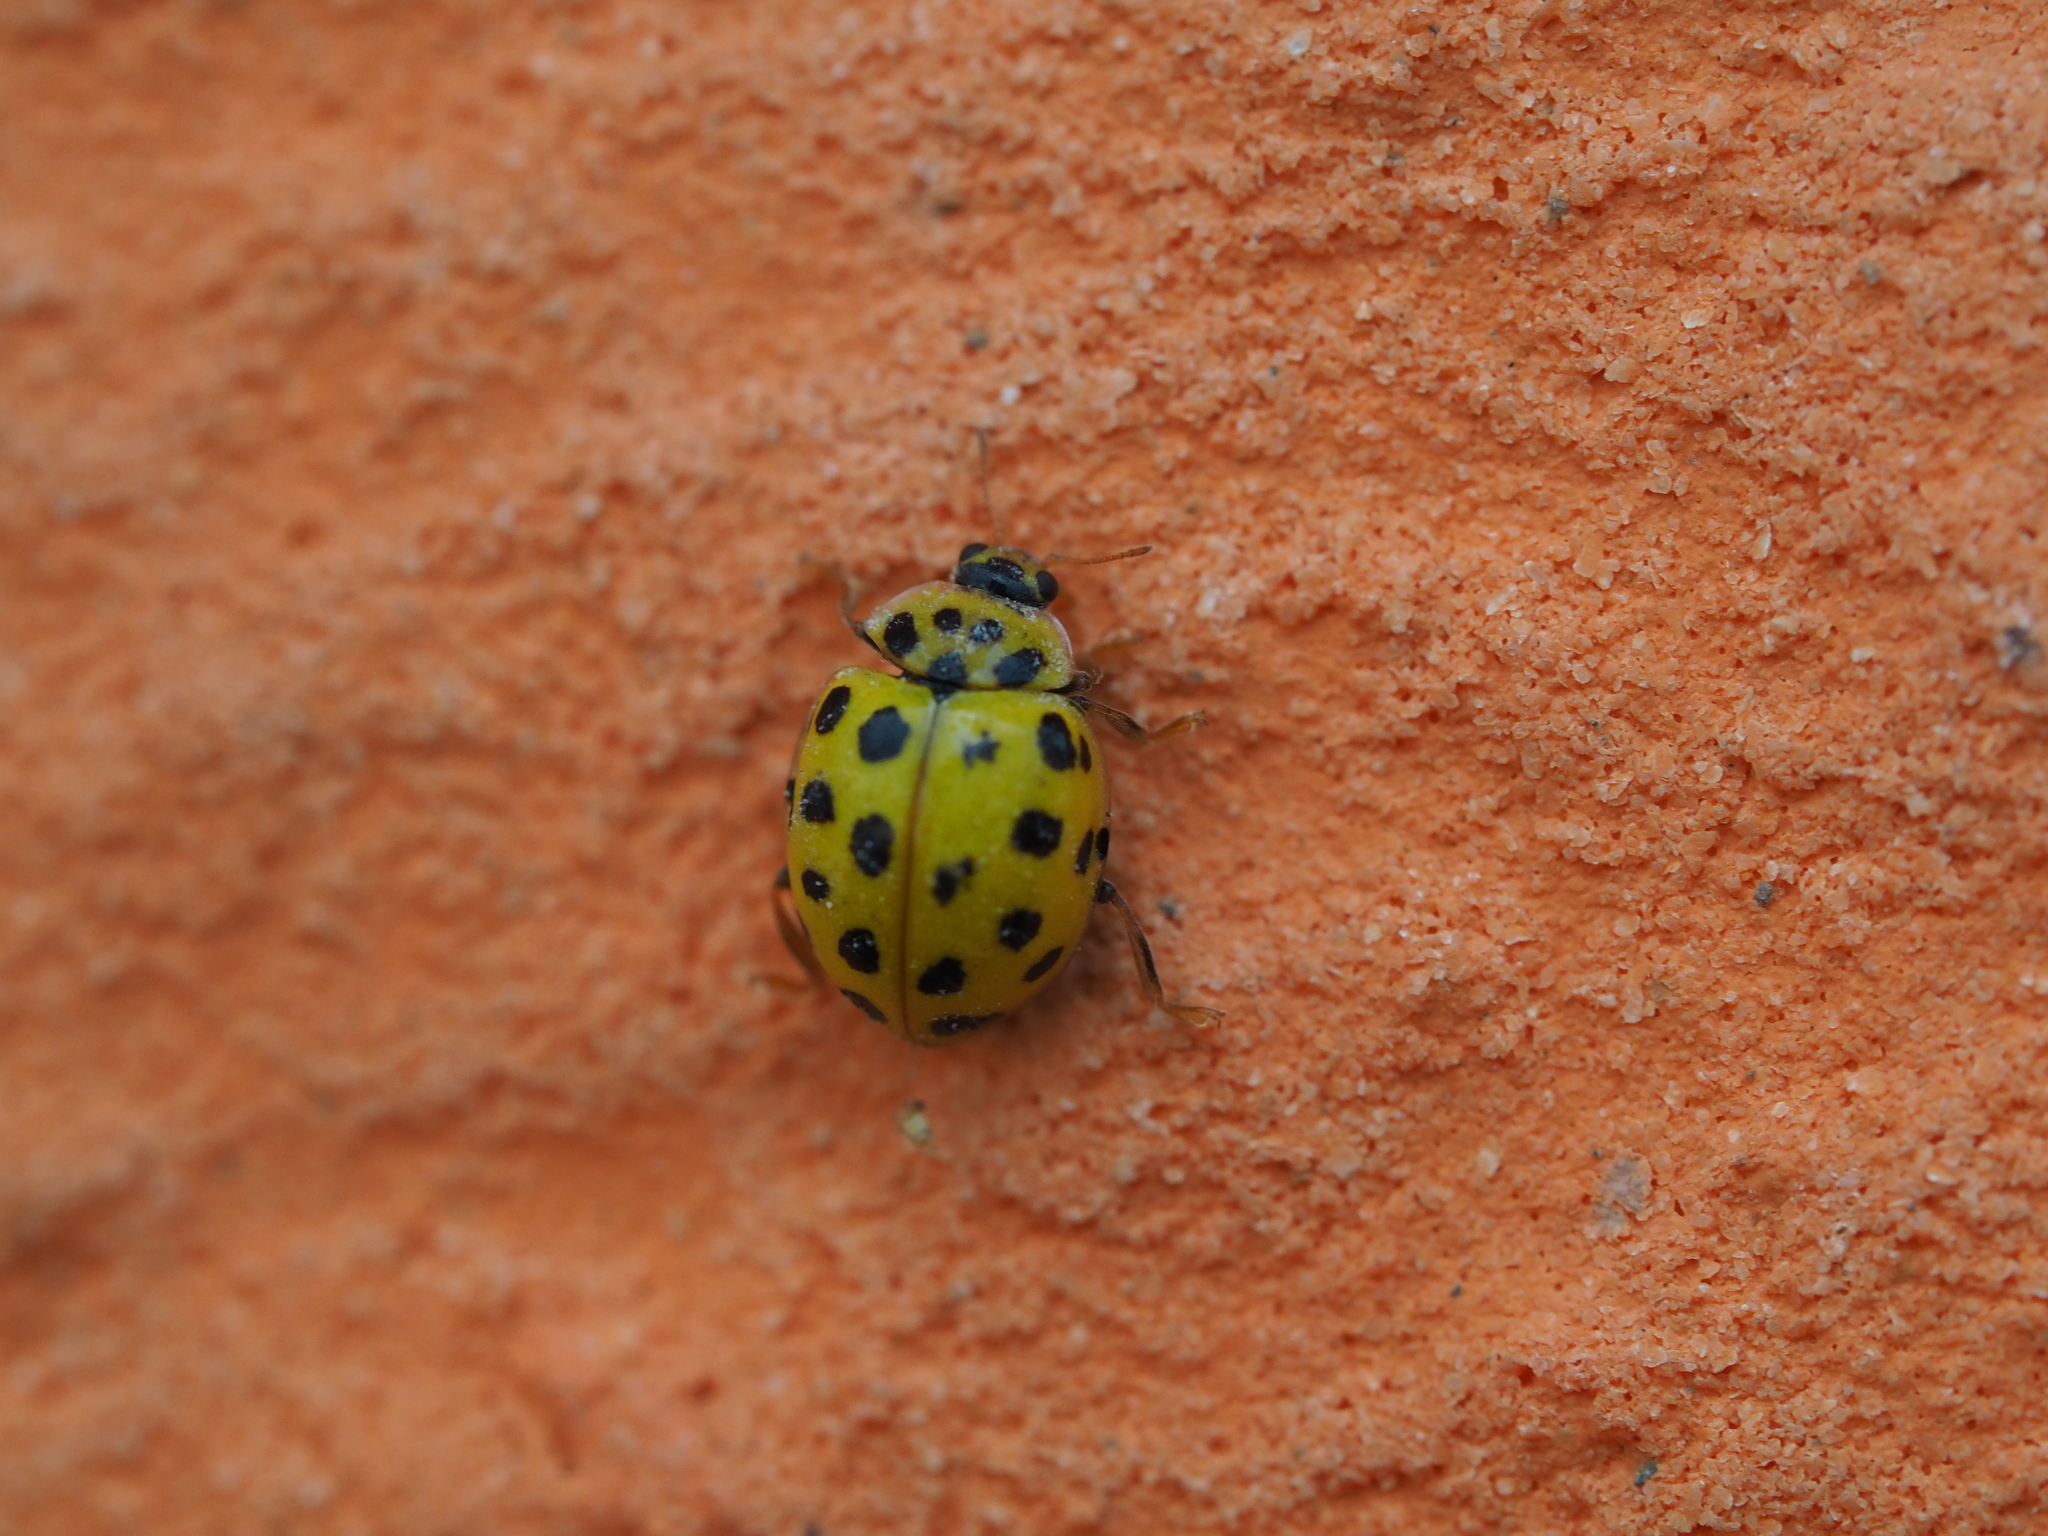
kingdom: Animalia
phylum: Arthropoda
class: Insecta
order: Coleoptera
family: Coccinellidae
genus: Psyllobora
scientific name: Psyllobora vigintiduopunctata
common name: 22-spot ladybird
